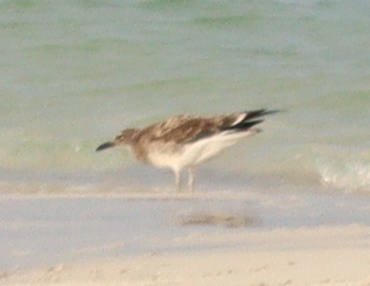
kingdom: Animalia
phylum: Chordata
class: Aves
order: Charadriiformes
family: Laridae
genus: Ichthyaetus
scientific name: Ichthyaetus hemprichii
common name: Sooty gull
